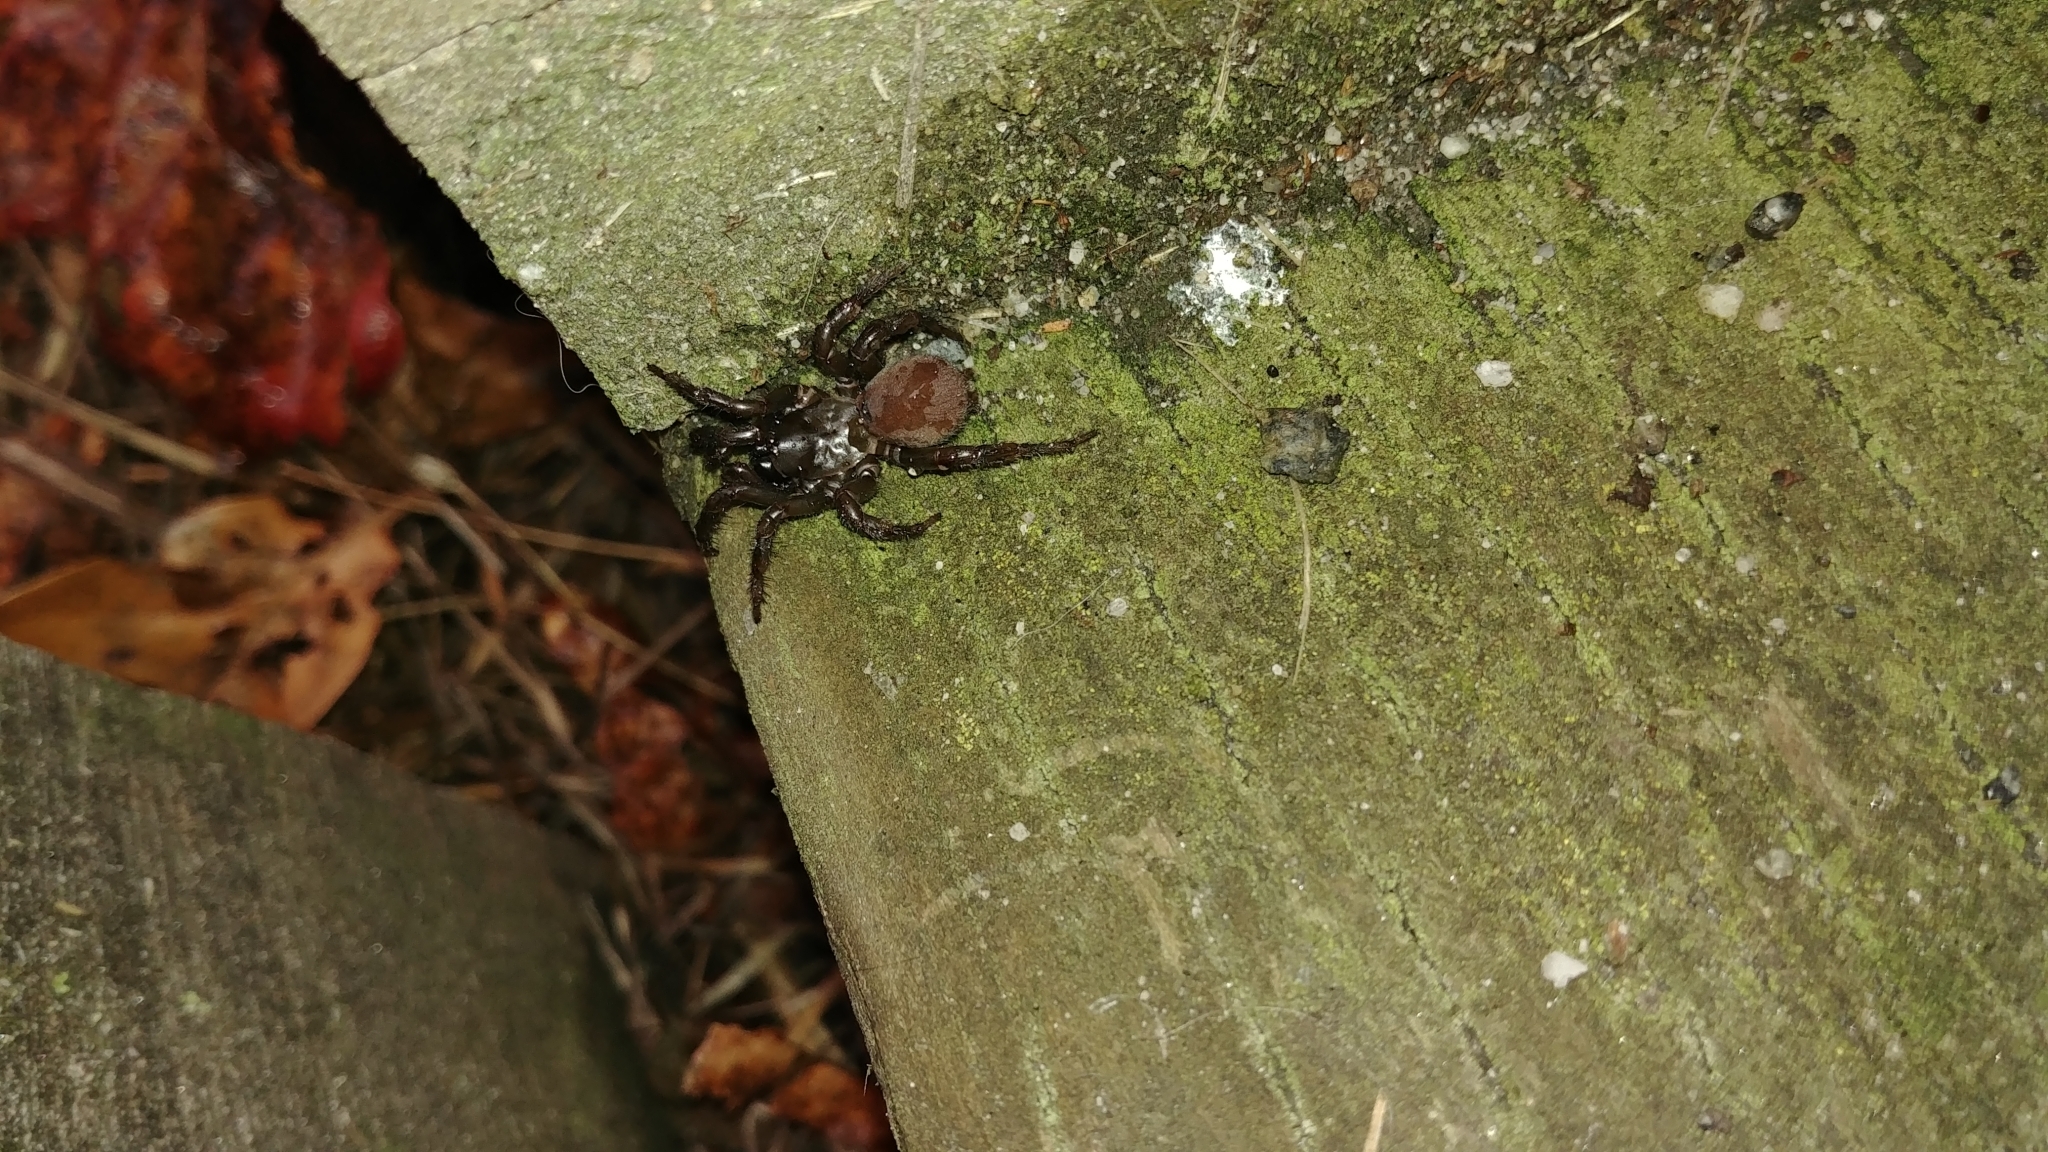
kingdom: Animalia
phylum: Arthropoda
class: Arachnida
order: Araneae
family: Antrodiaetidae
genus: Antrodiaetus
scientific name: Antrodiaetus pacificus
